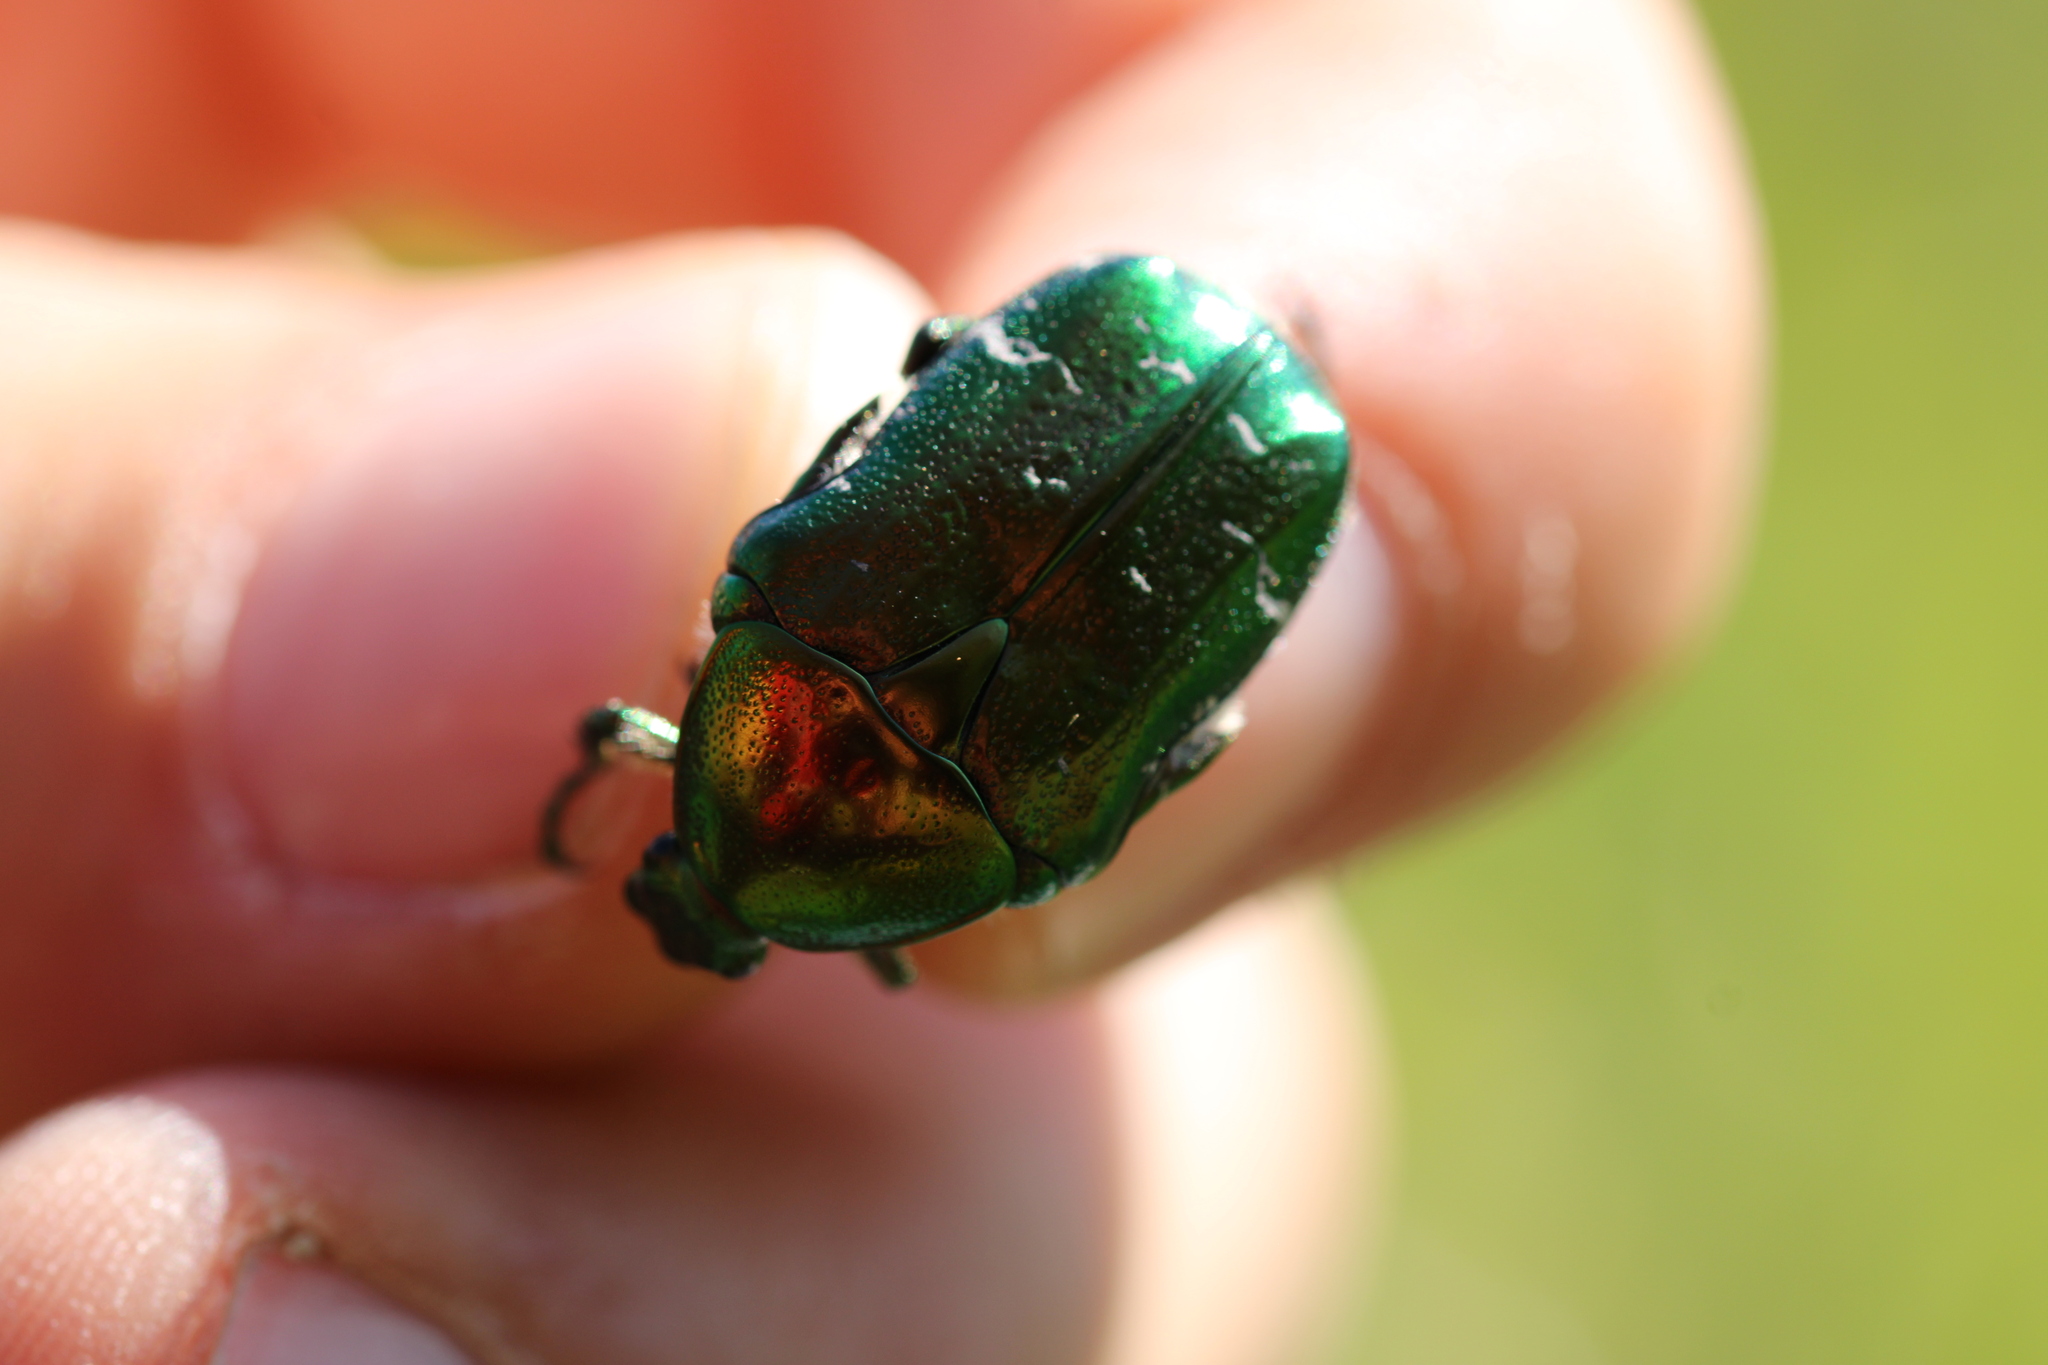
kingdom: Animalia
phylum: Arthropoda
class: Insecta
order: Coleoptera
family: Scarabaeidae
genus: Cetonia
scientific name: Cetonia aurata
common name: Rose chafer
